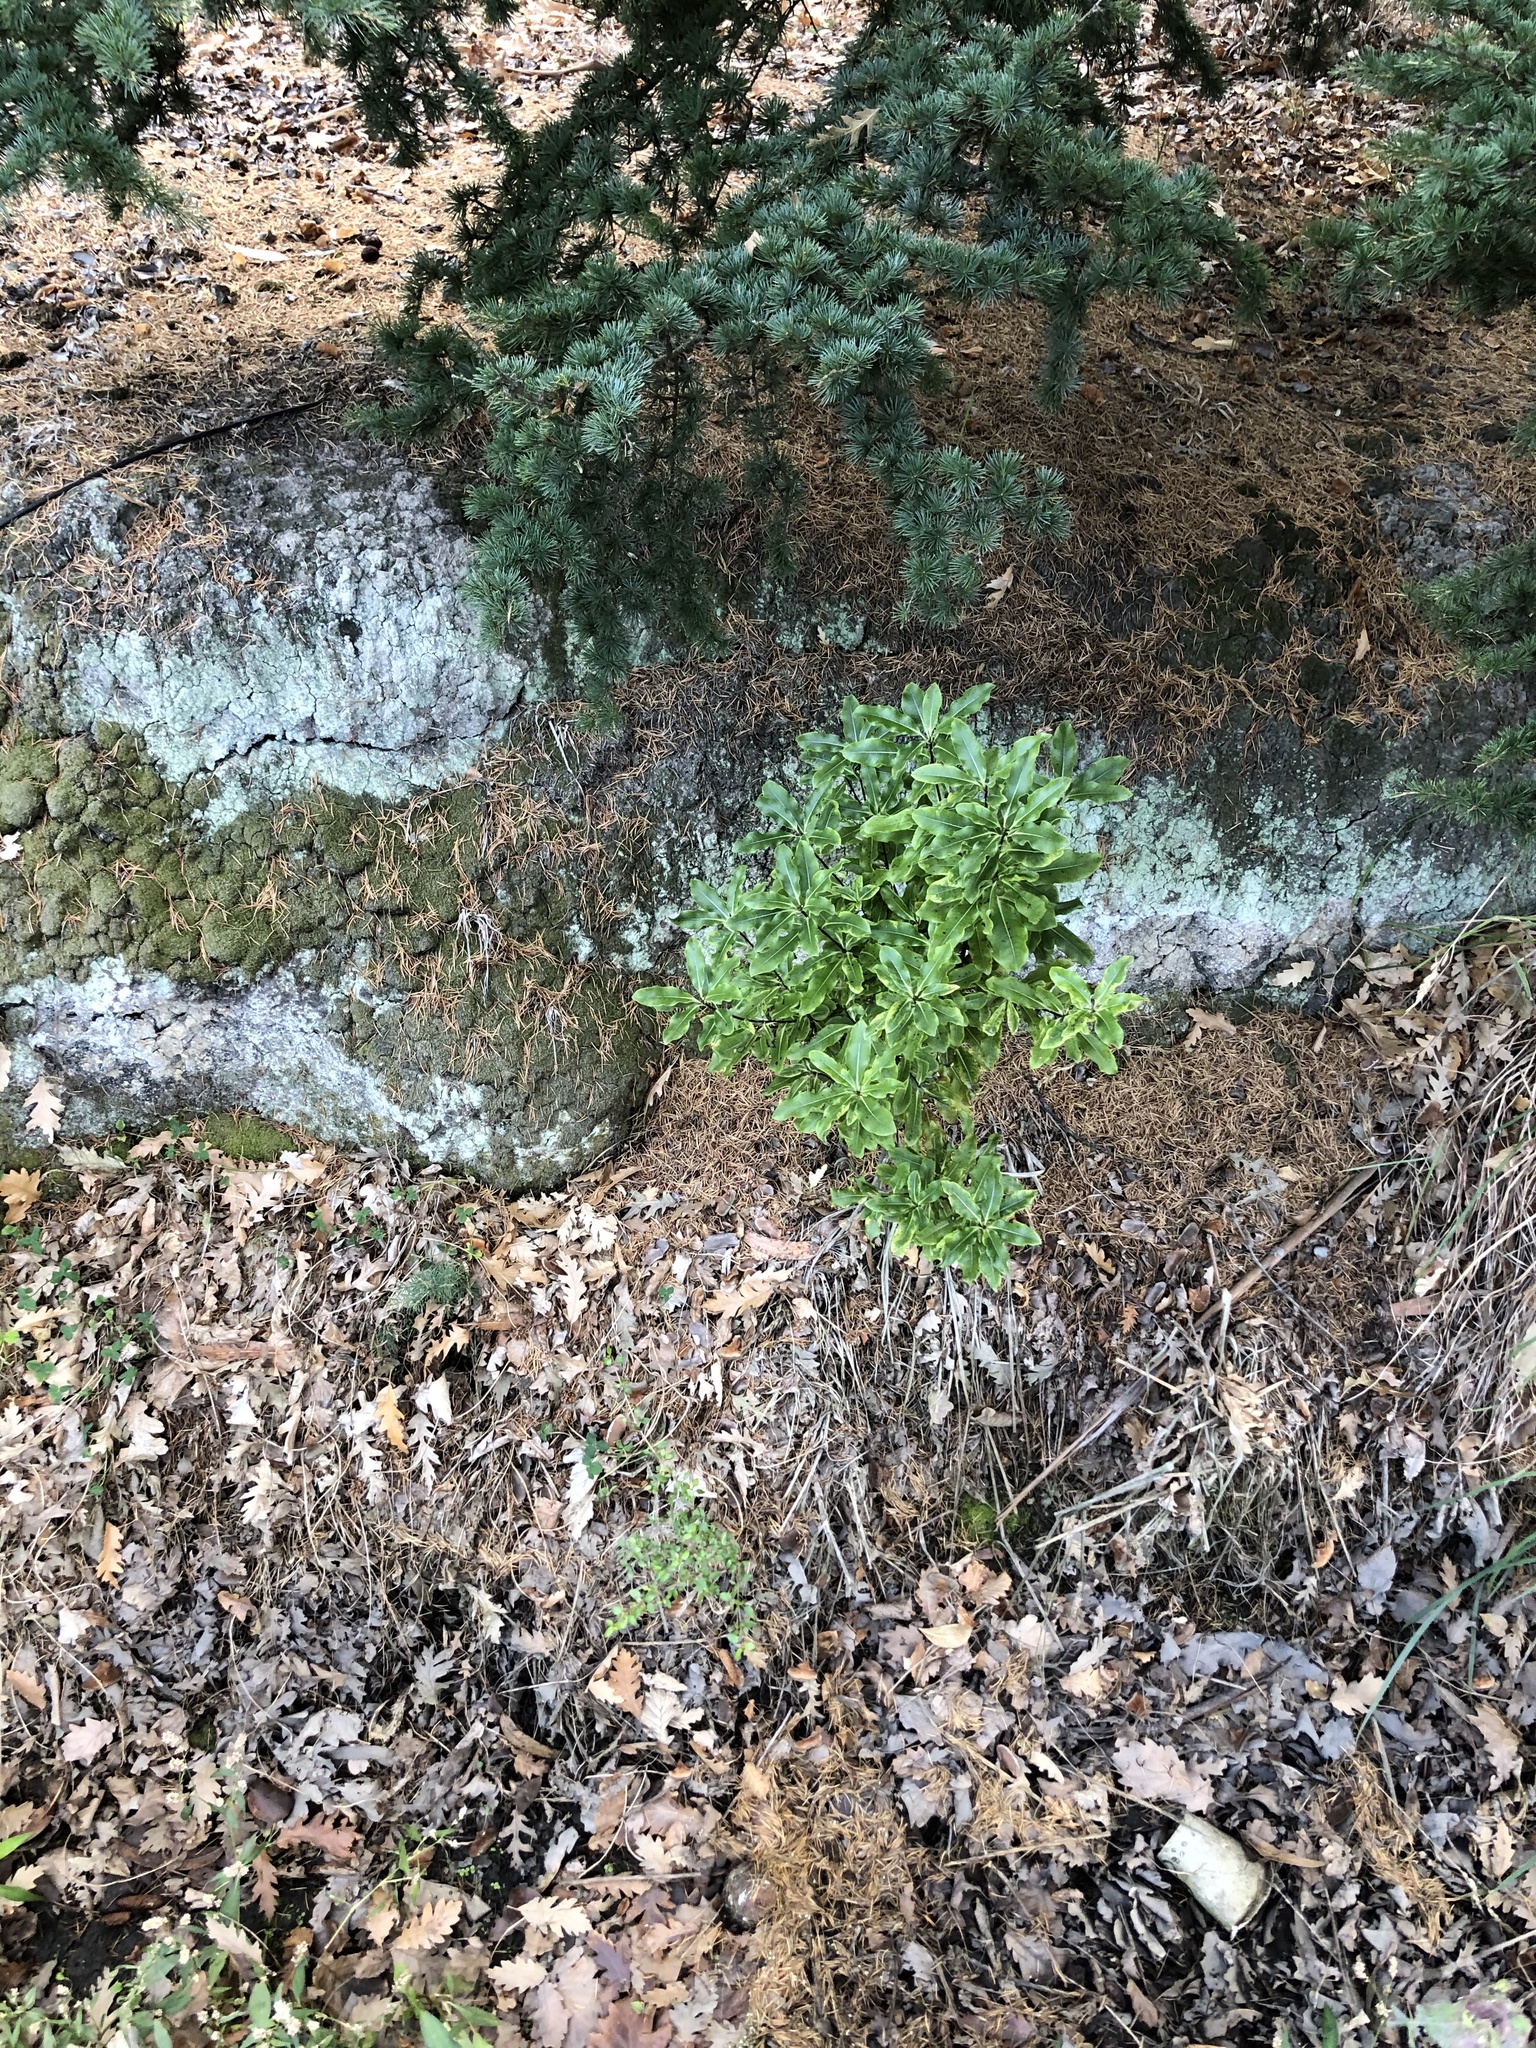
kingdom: Plantae
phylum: Tracheophyta
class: Magnoliopsida
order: Apiales
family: Pittosporaceae
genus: Pittosporum
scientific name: Pittosporum eugenioides
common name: Lemonwood
